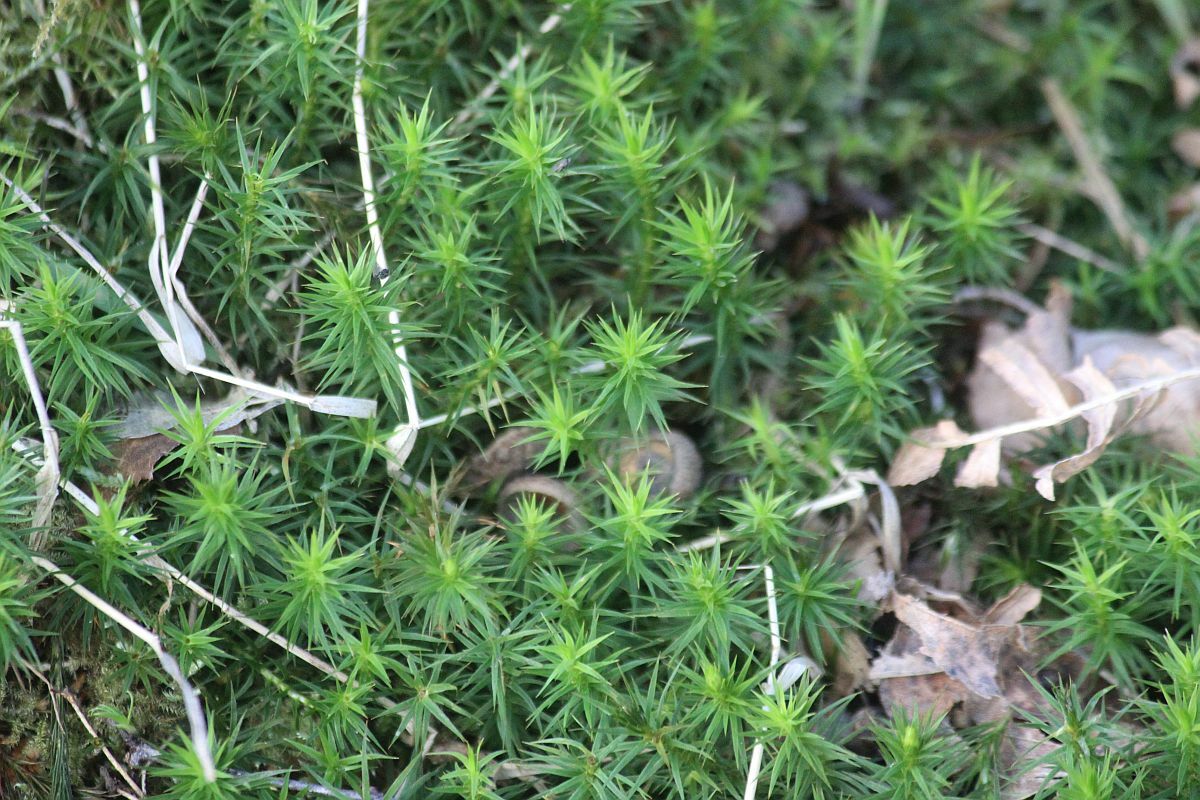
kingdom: Plantae
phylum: Bryophyta
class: Polytrichopsida
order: Polytrichales
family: Polytrichaceae
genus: Polytrichum
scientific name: Polytrichum formosum
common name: Bank haircap moss
